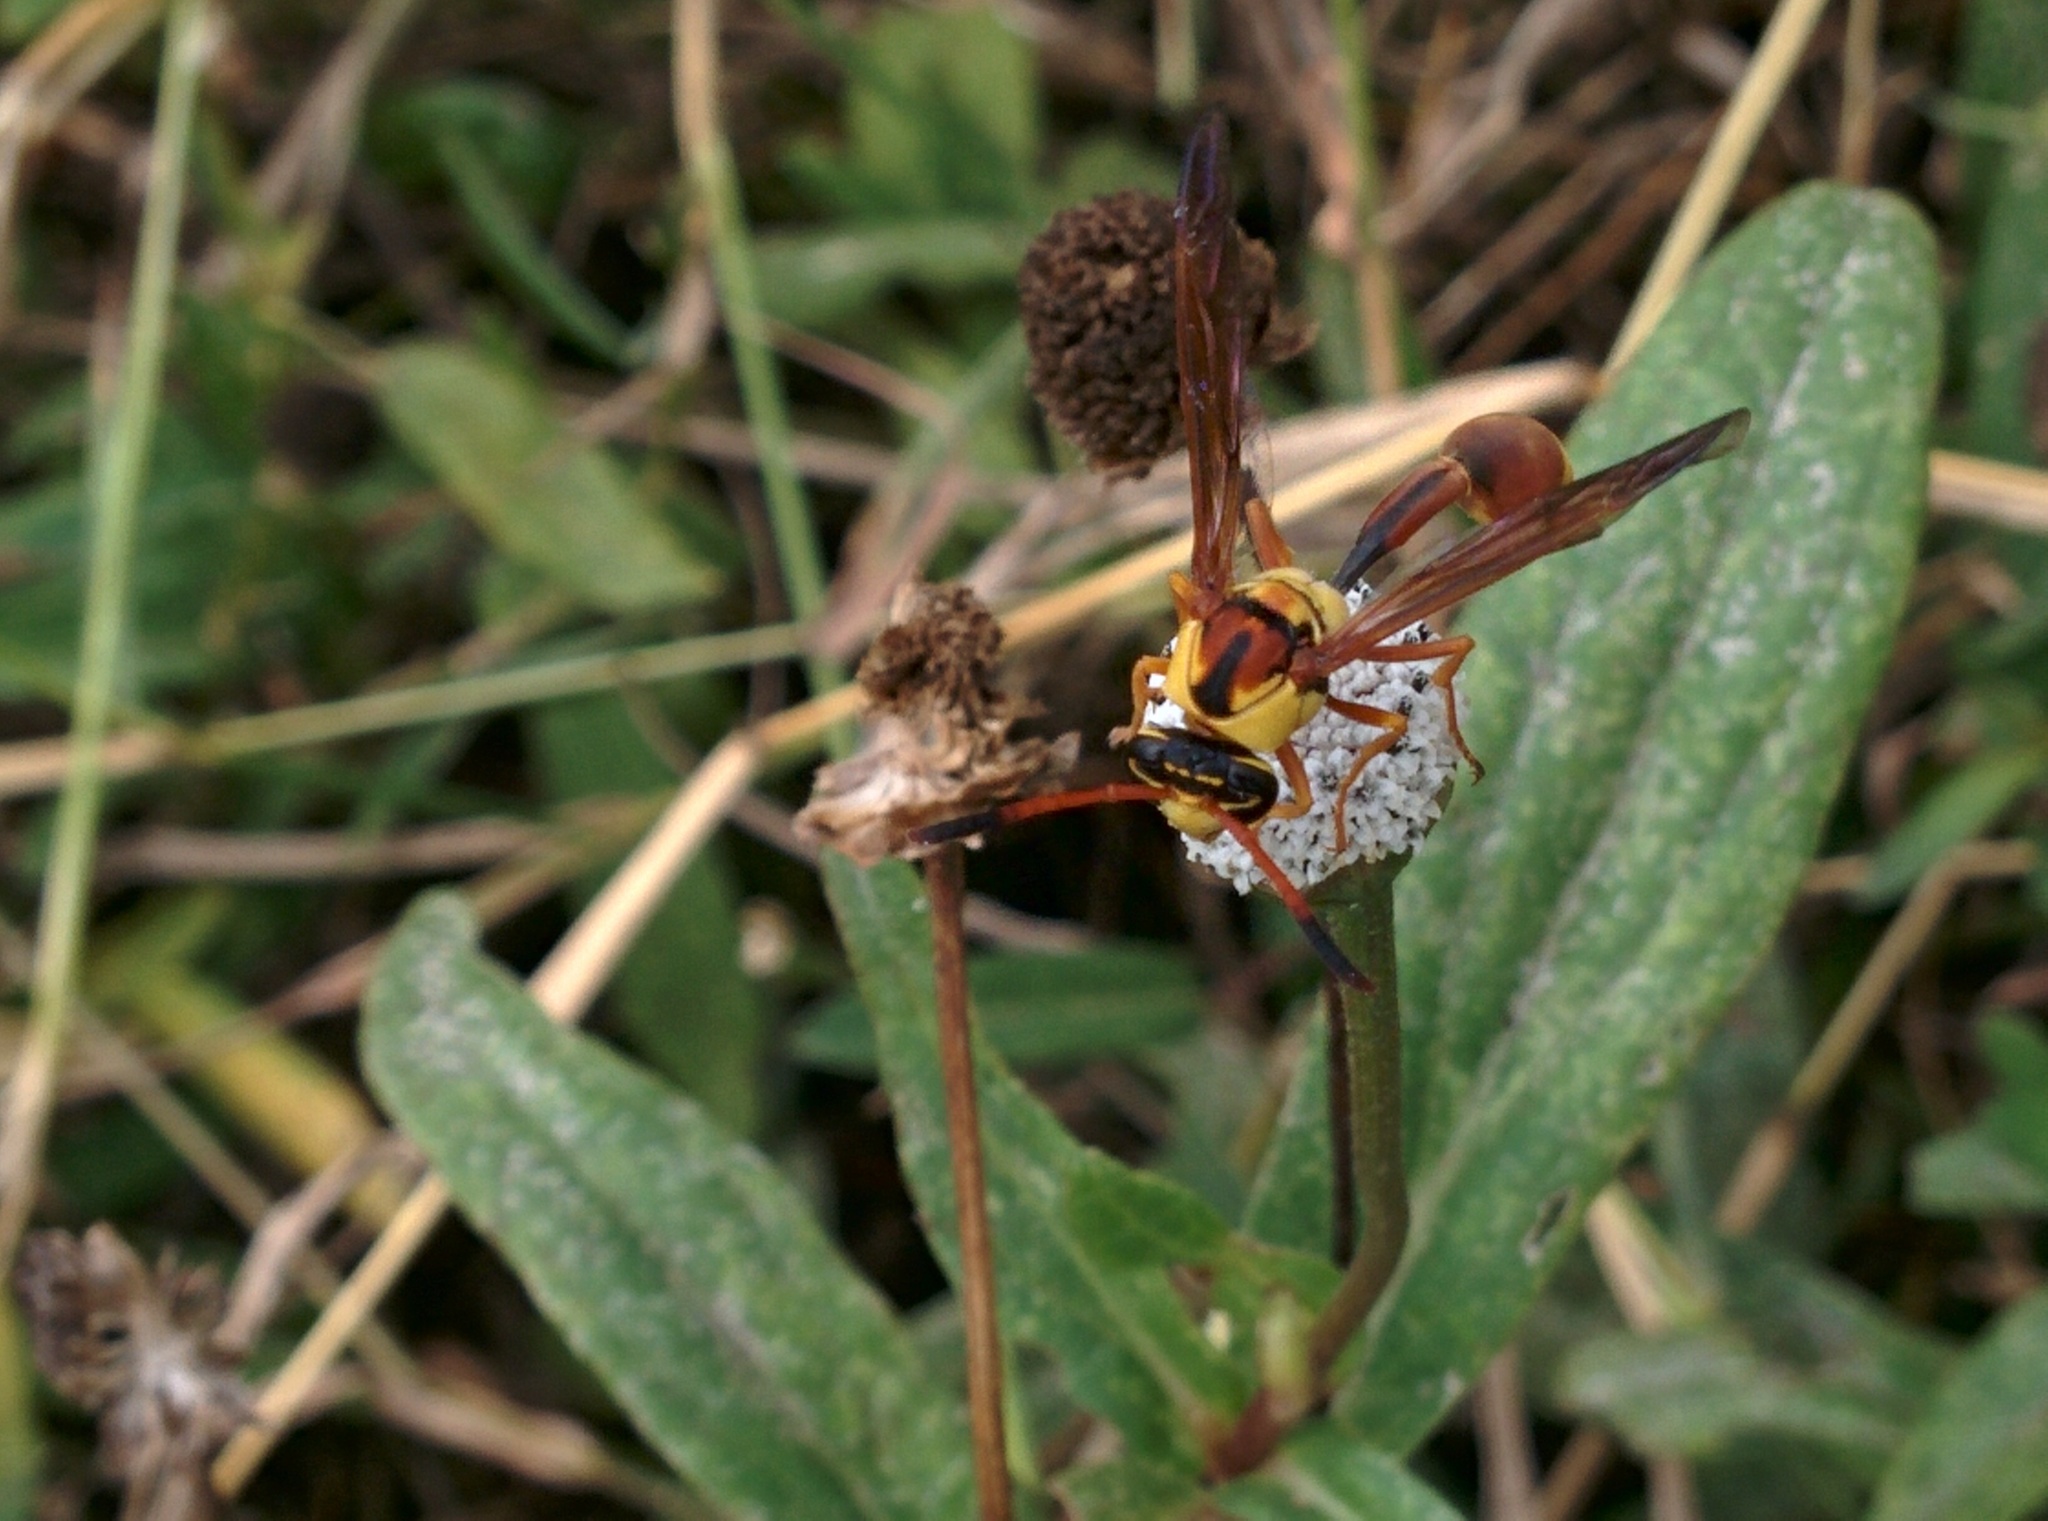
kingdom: Animalia
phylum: Arthropoda
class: Insecta
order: Hymenoptera
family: Eumenidae
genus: Zeta
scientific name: Zeta abdominale
